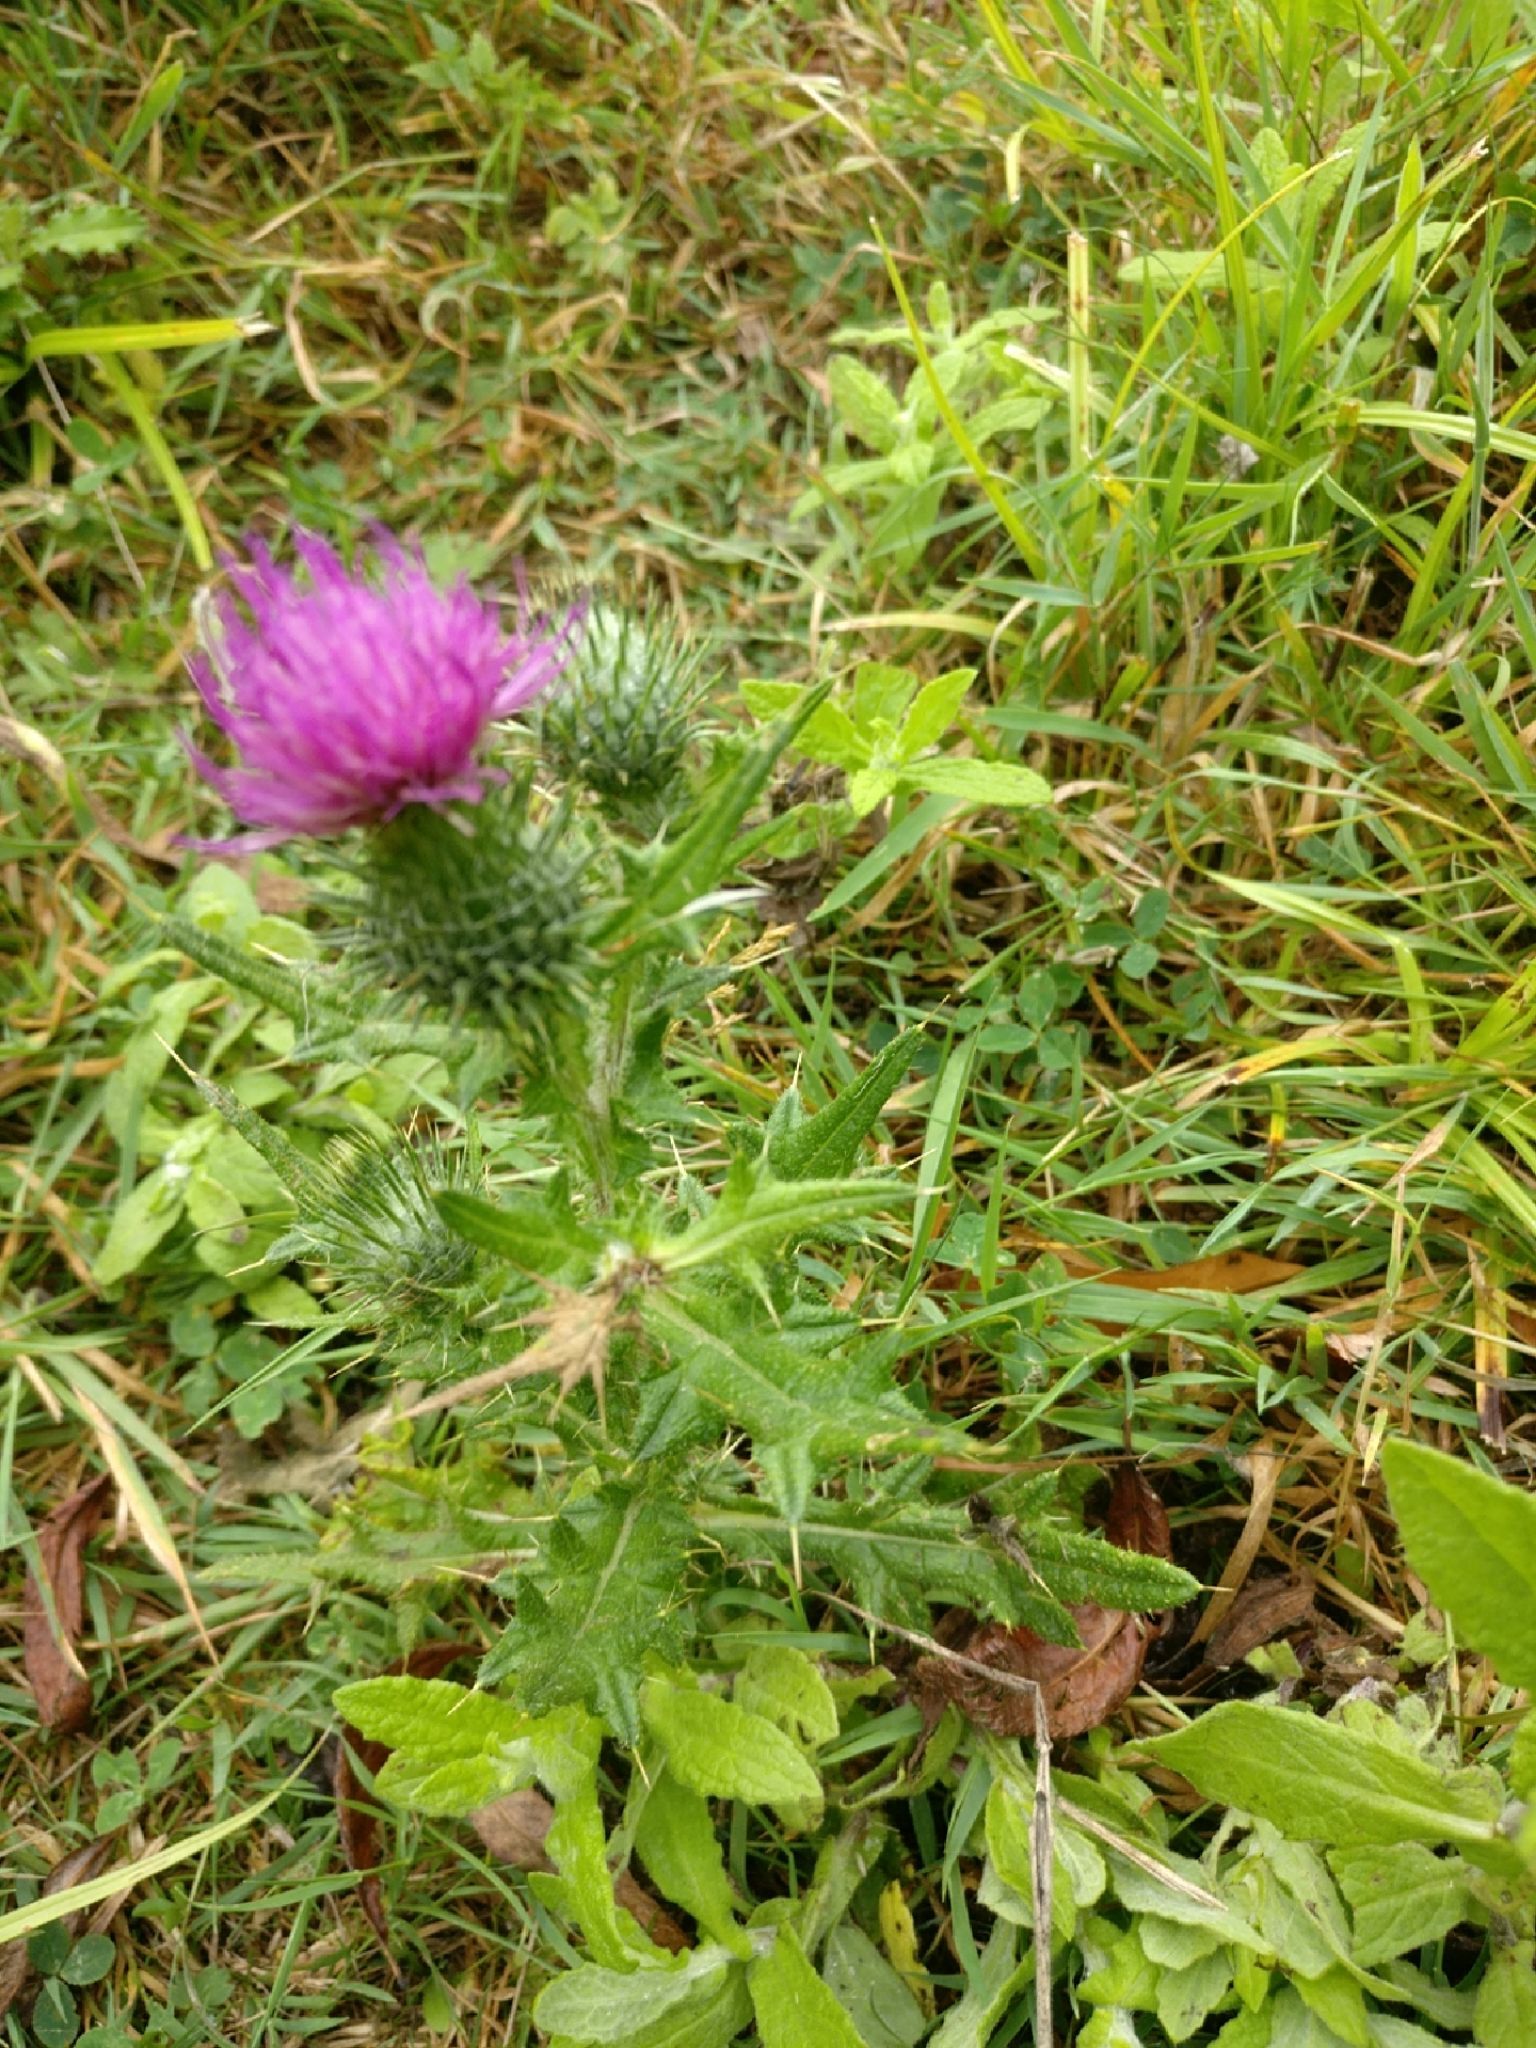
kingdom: Plantae
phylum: Tracheophyta
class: Magnoliopsida
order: Asterales
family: Asteraceae
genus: Cirsium
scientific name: Cirsium vulgare
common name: Bull thistle
